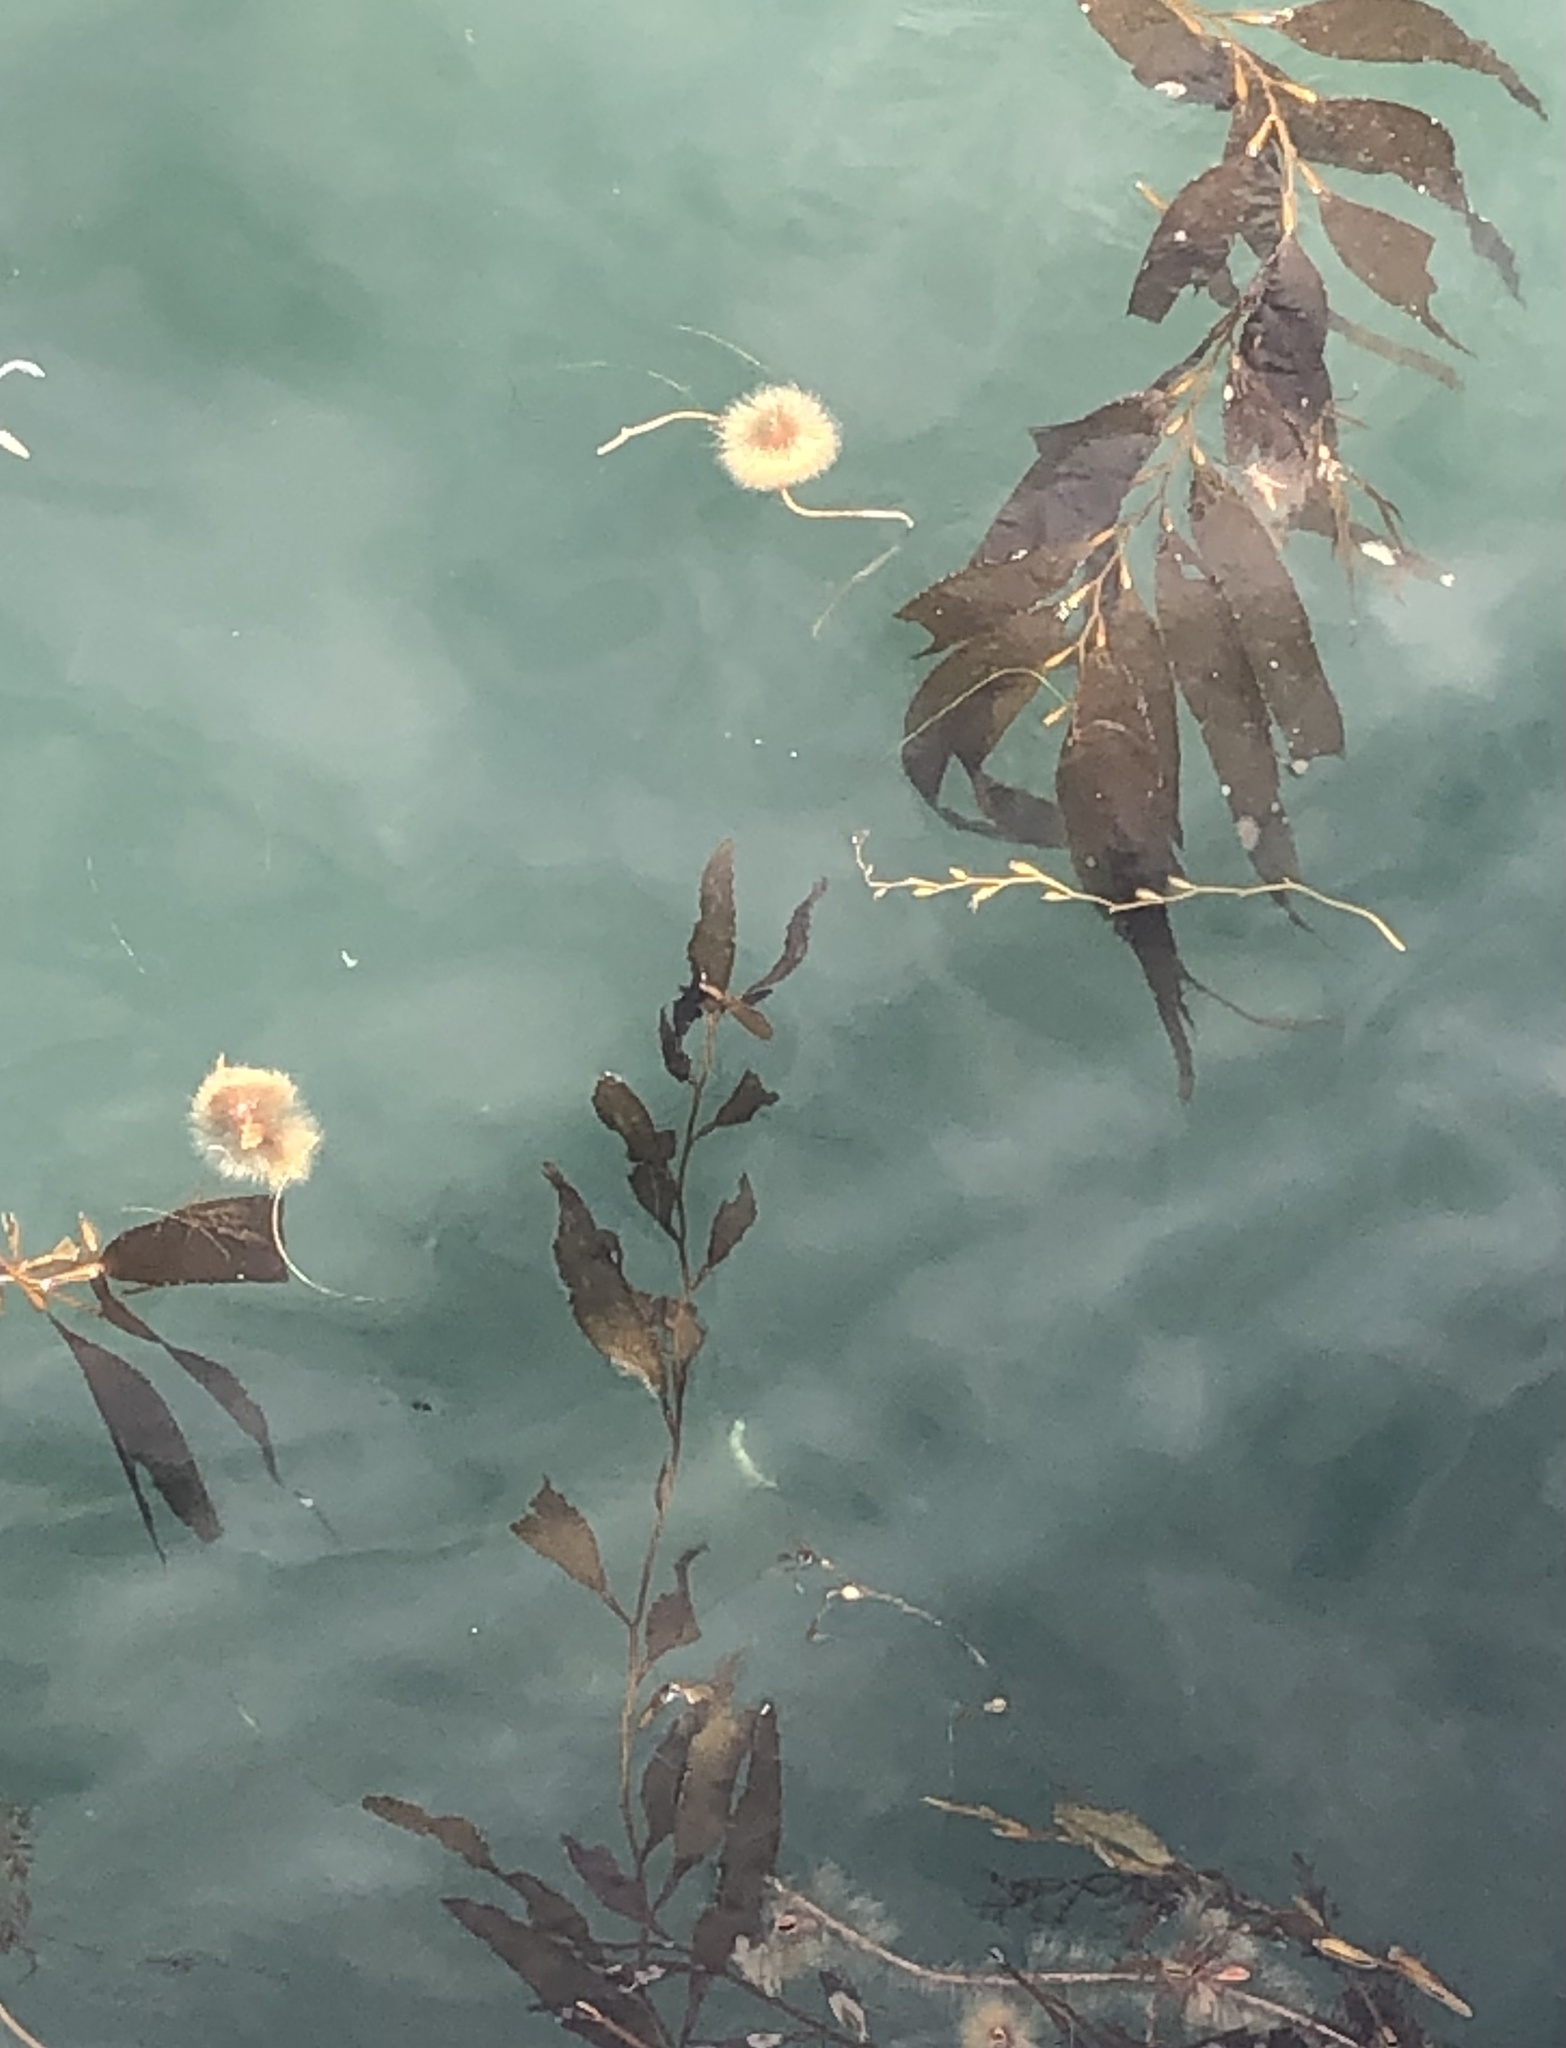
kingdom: Animalia
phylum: Cnidaria
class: Scyphozoa
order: Semaeostomeae
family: Phacellophoridae
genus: Phacellophora
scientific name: Phacellophora camtschatica
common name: Fried-egg jellyfish
